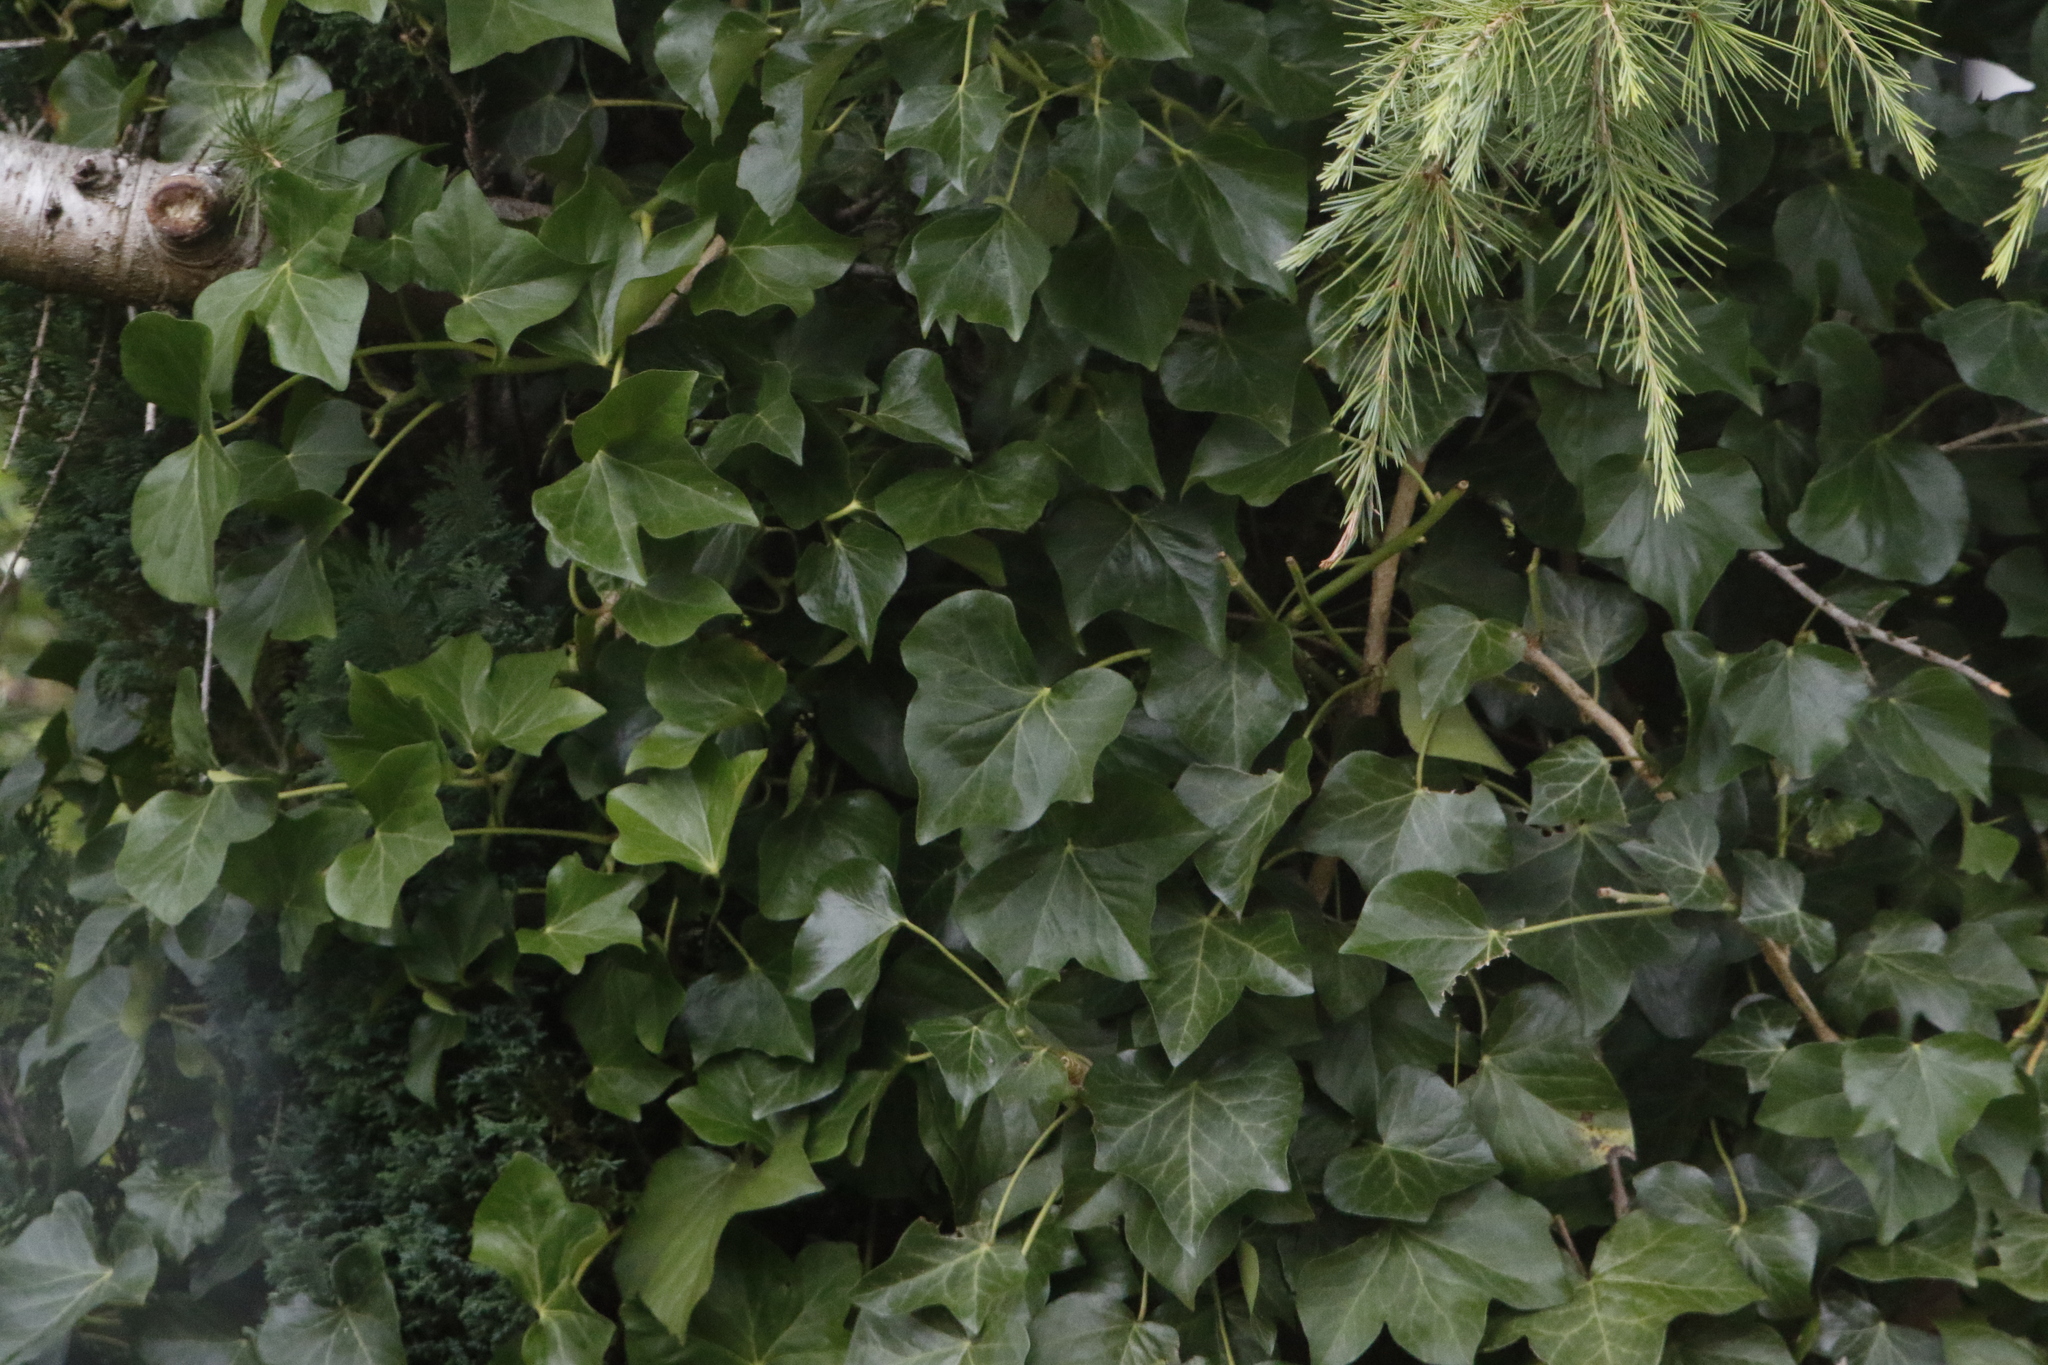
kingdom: Plantae
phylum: Tracheophyta
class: Magnoliopsida
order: Apiales
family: Araliaceae
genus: Hedera
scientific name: Hedera helix
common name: Ivy
